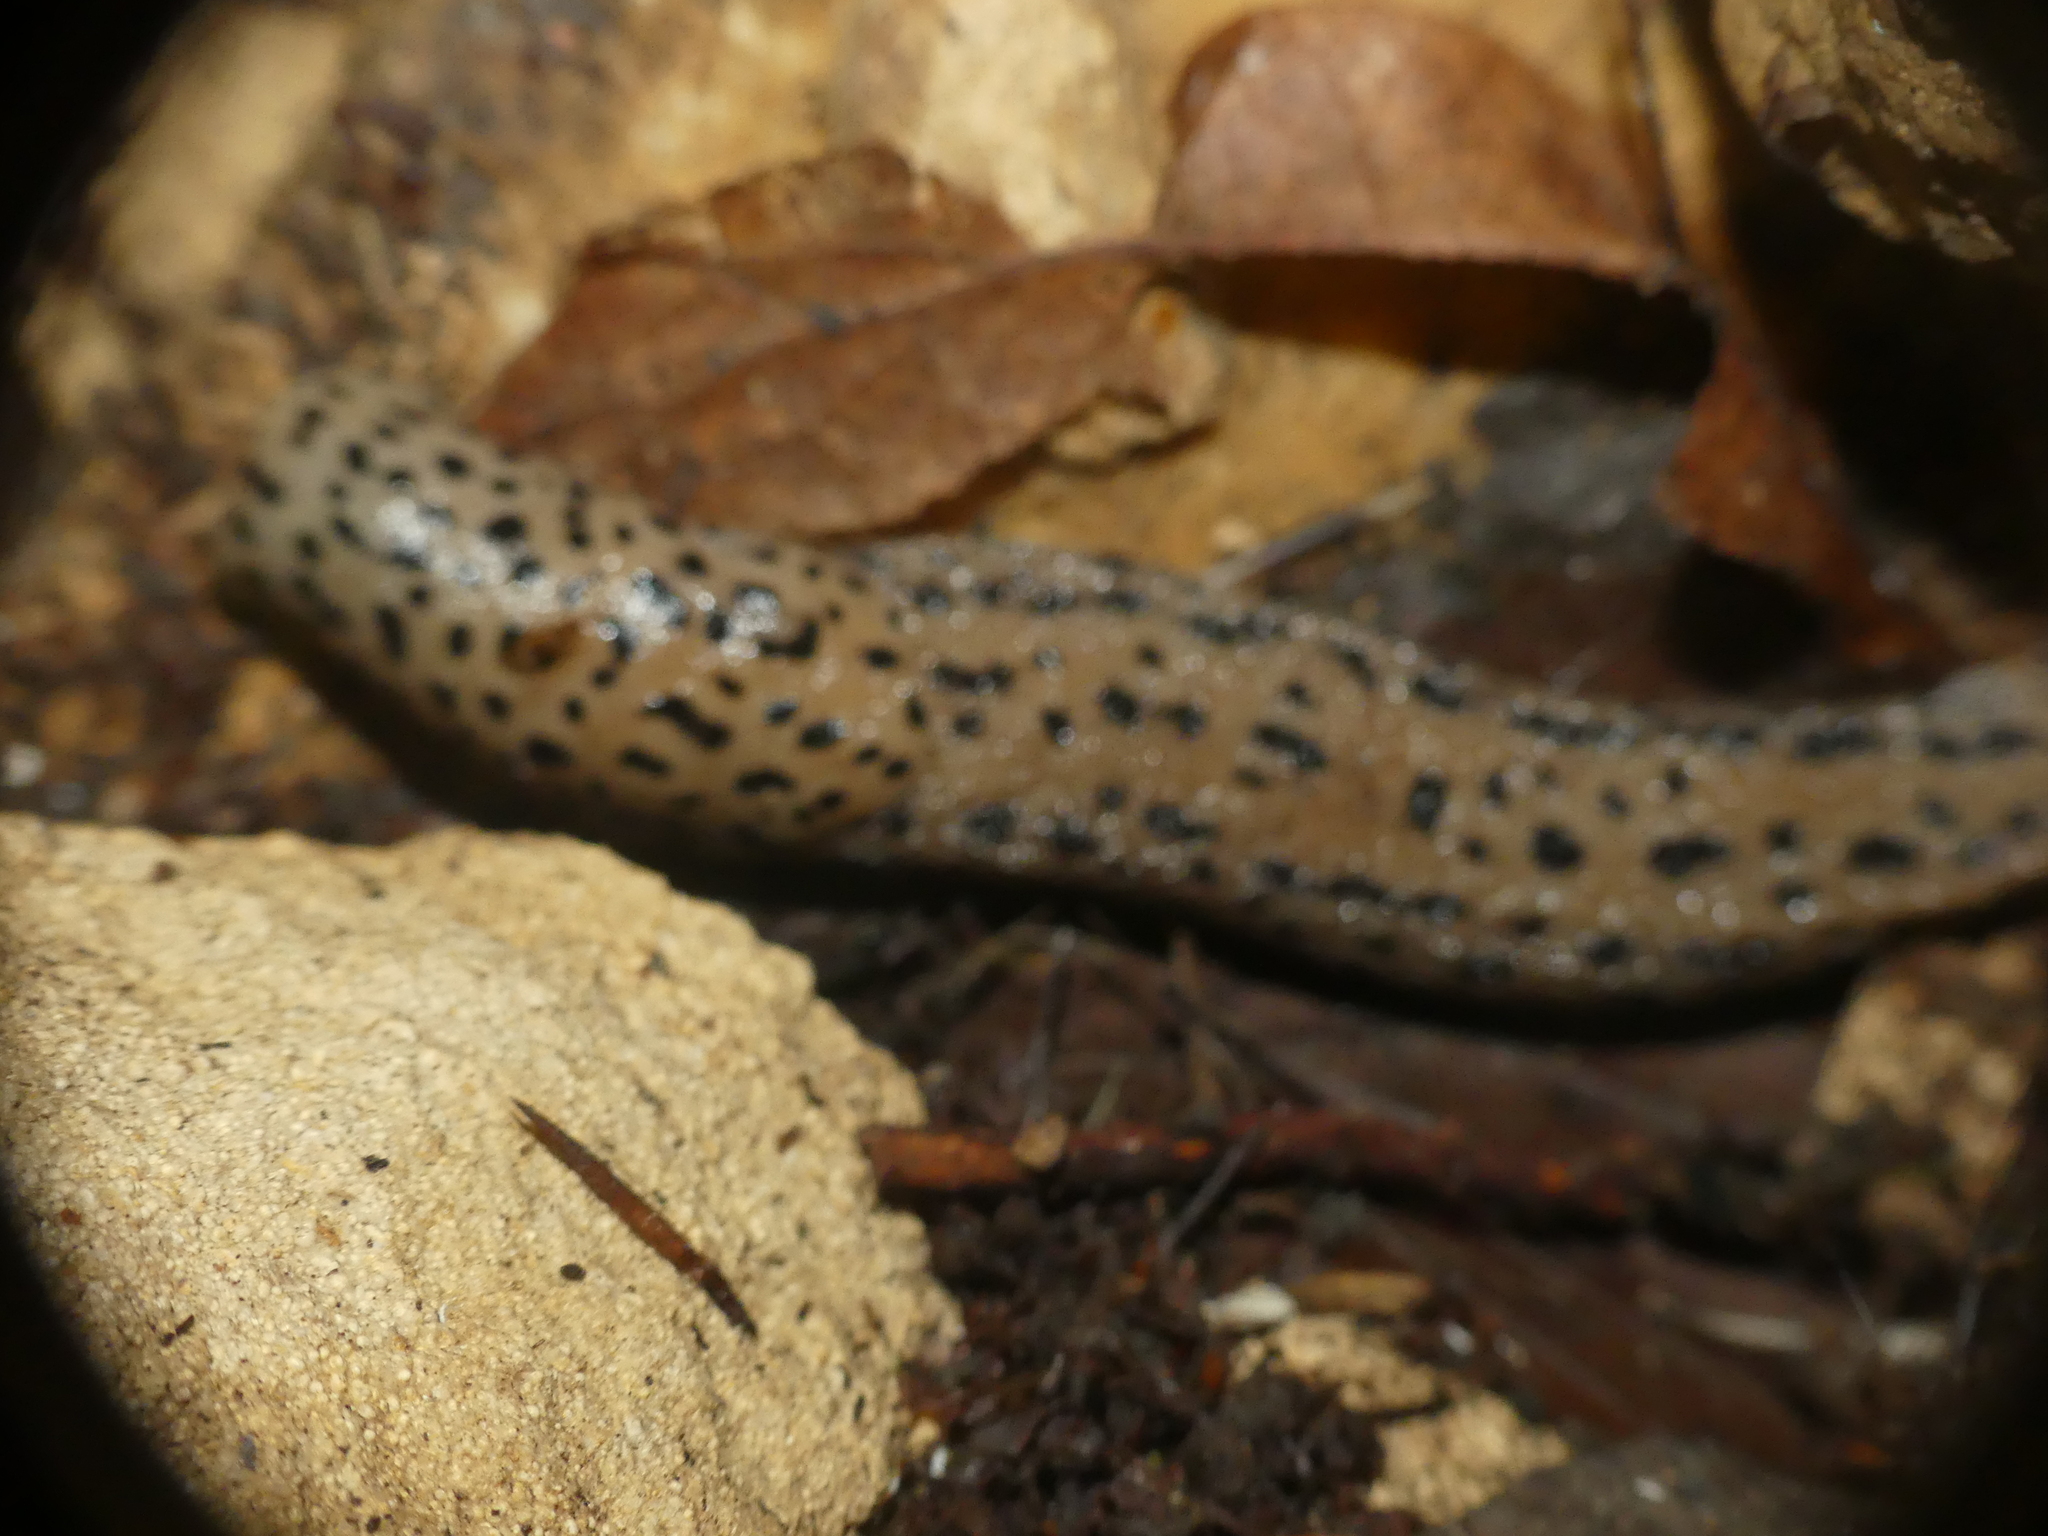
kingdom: Animalia
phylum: Mollusca
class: Gastropoda
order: Stylommatophora
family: Limacidae
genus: Limax
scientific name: Limax maximus
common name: Great grey slug
